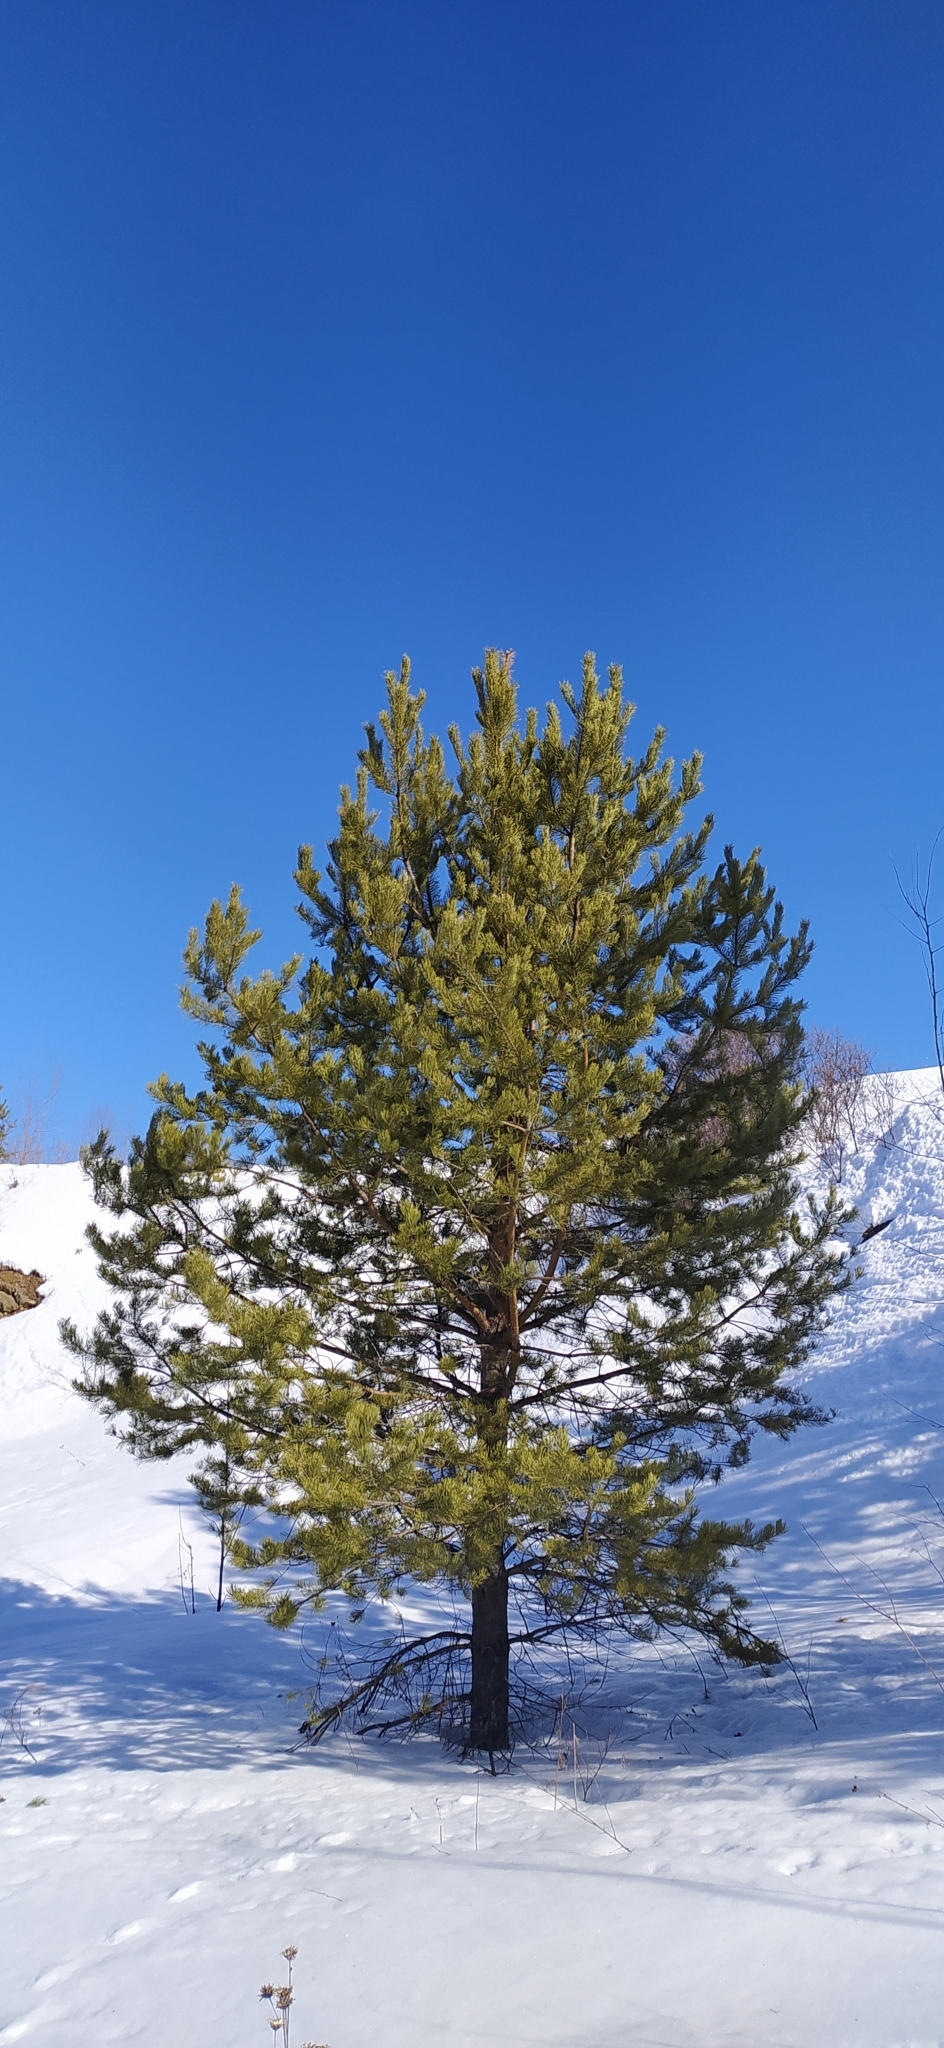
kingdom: Plantae
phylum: Tracheophyta
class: Pinopsida
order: Pinales
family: Pinaceae
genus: Pinus
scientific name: Pinus sylvestris
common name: Scots pine
